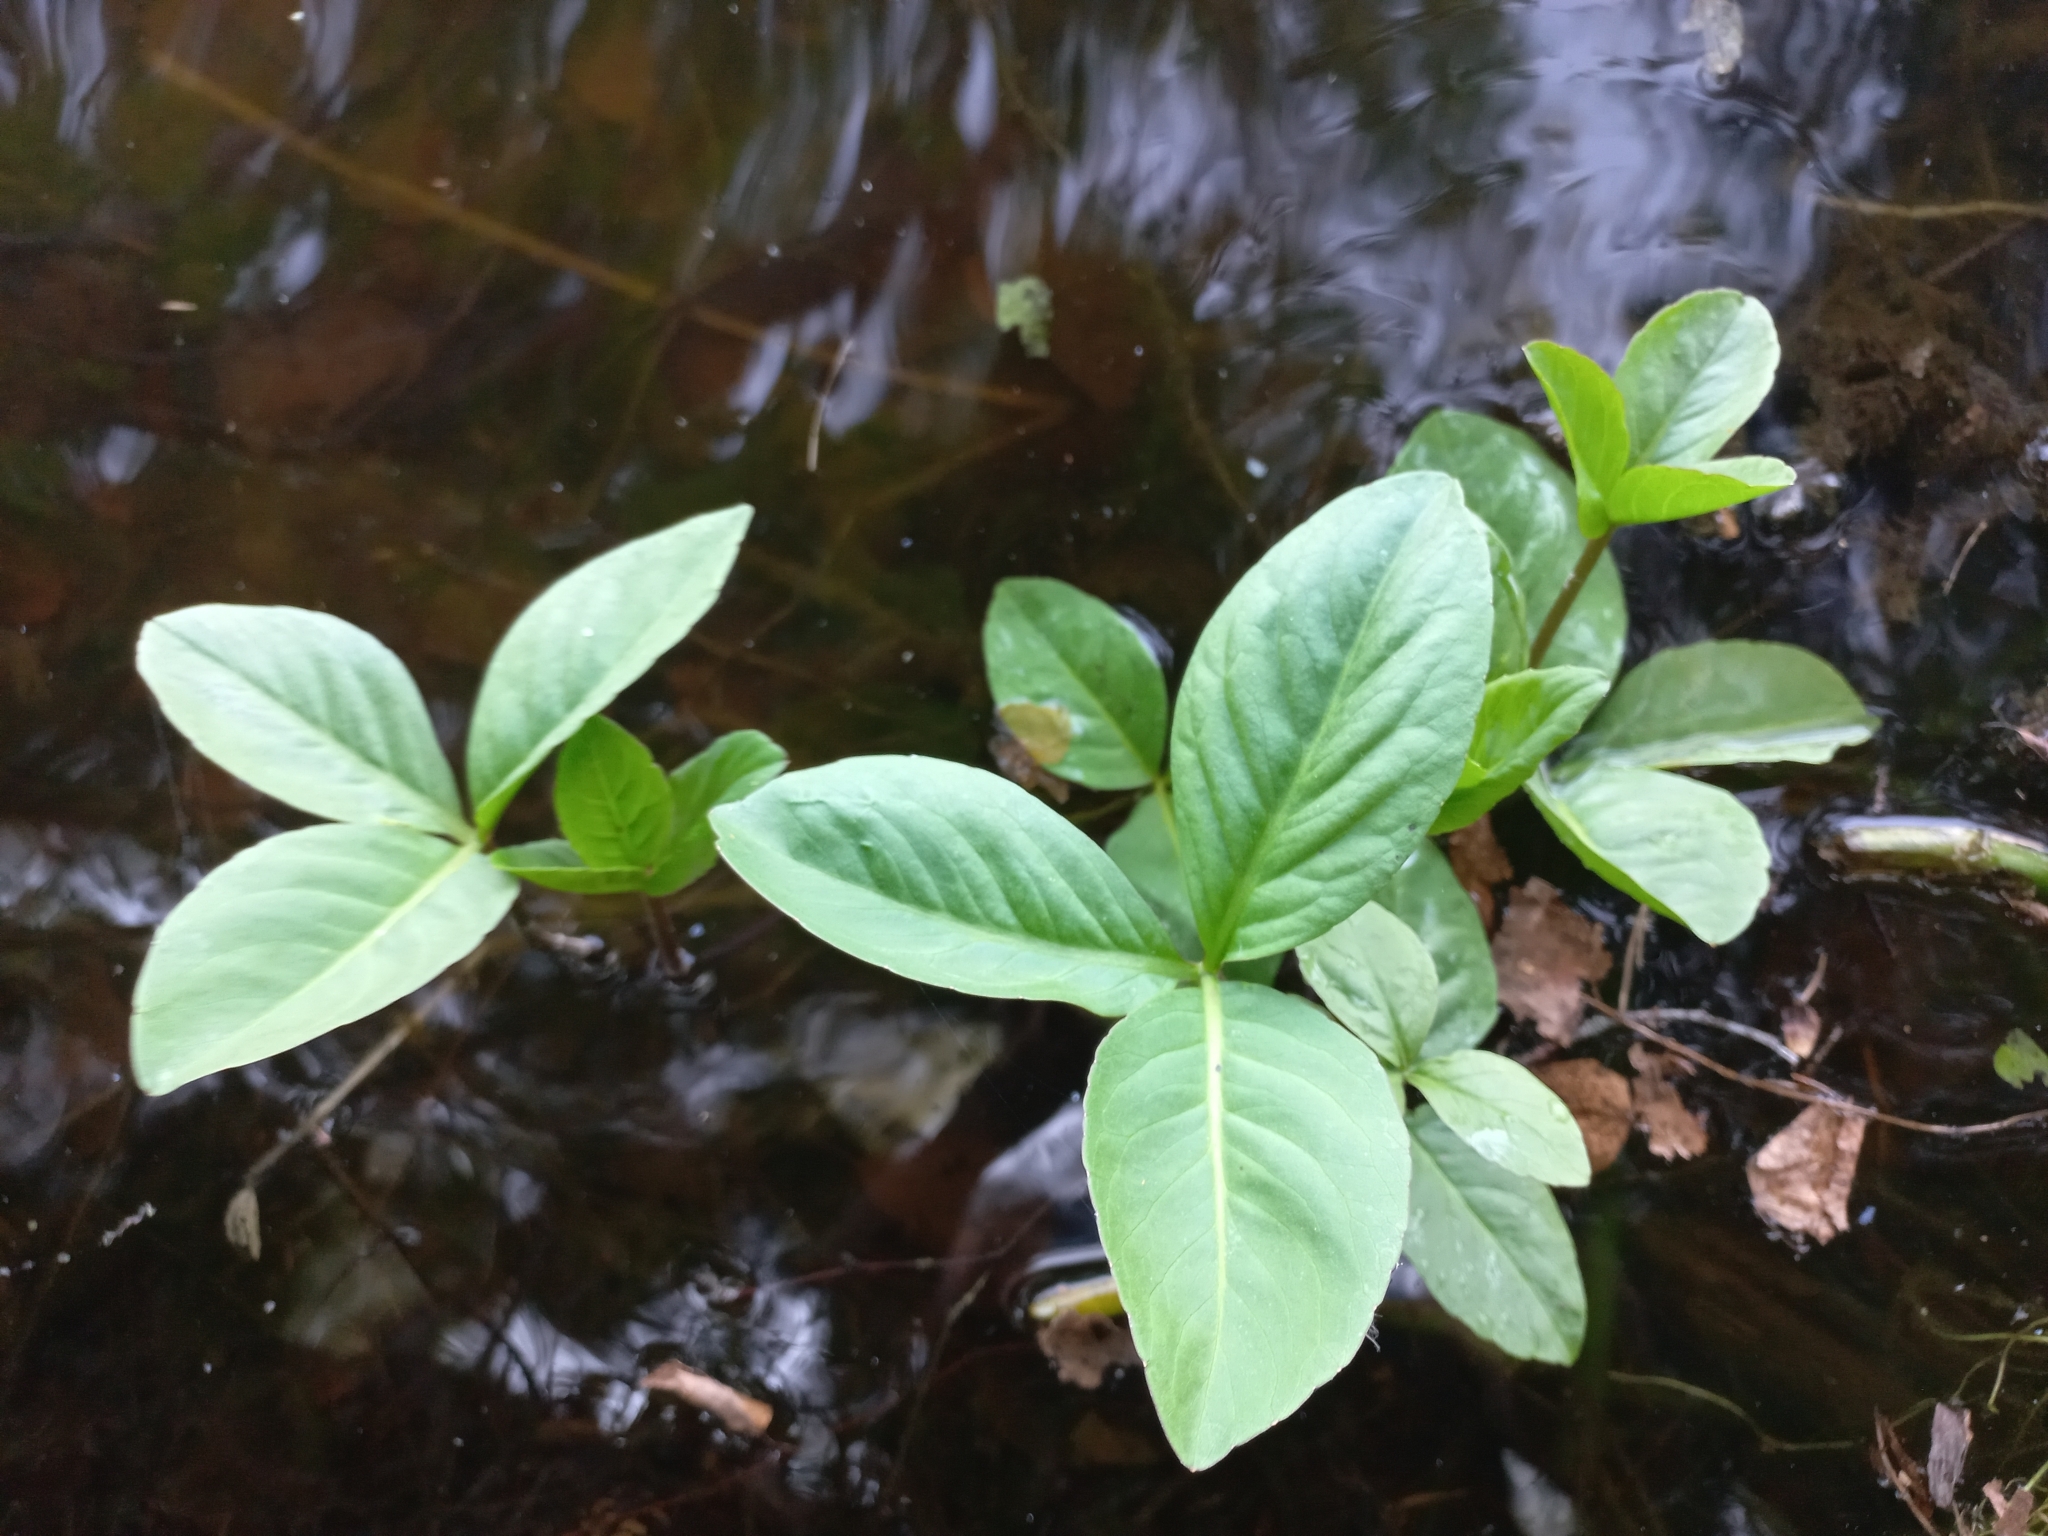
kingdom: Plantae
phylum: Tracheophyta
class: Magnoliopsida
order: Asterales
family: Menyanthaceae
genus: Menyanthes
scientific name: Menyanthes trifoliata
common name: Bogbean
